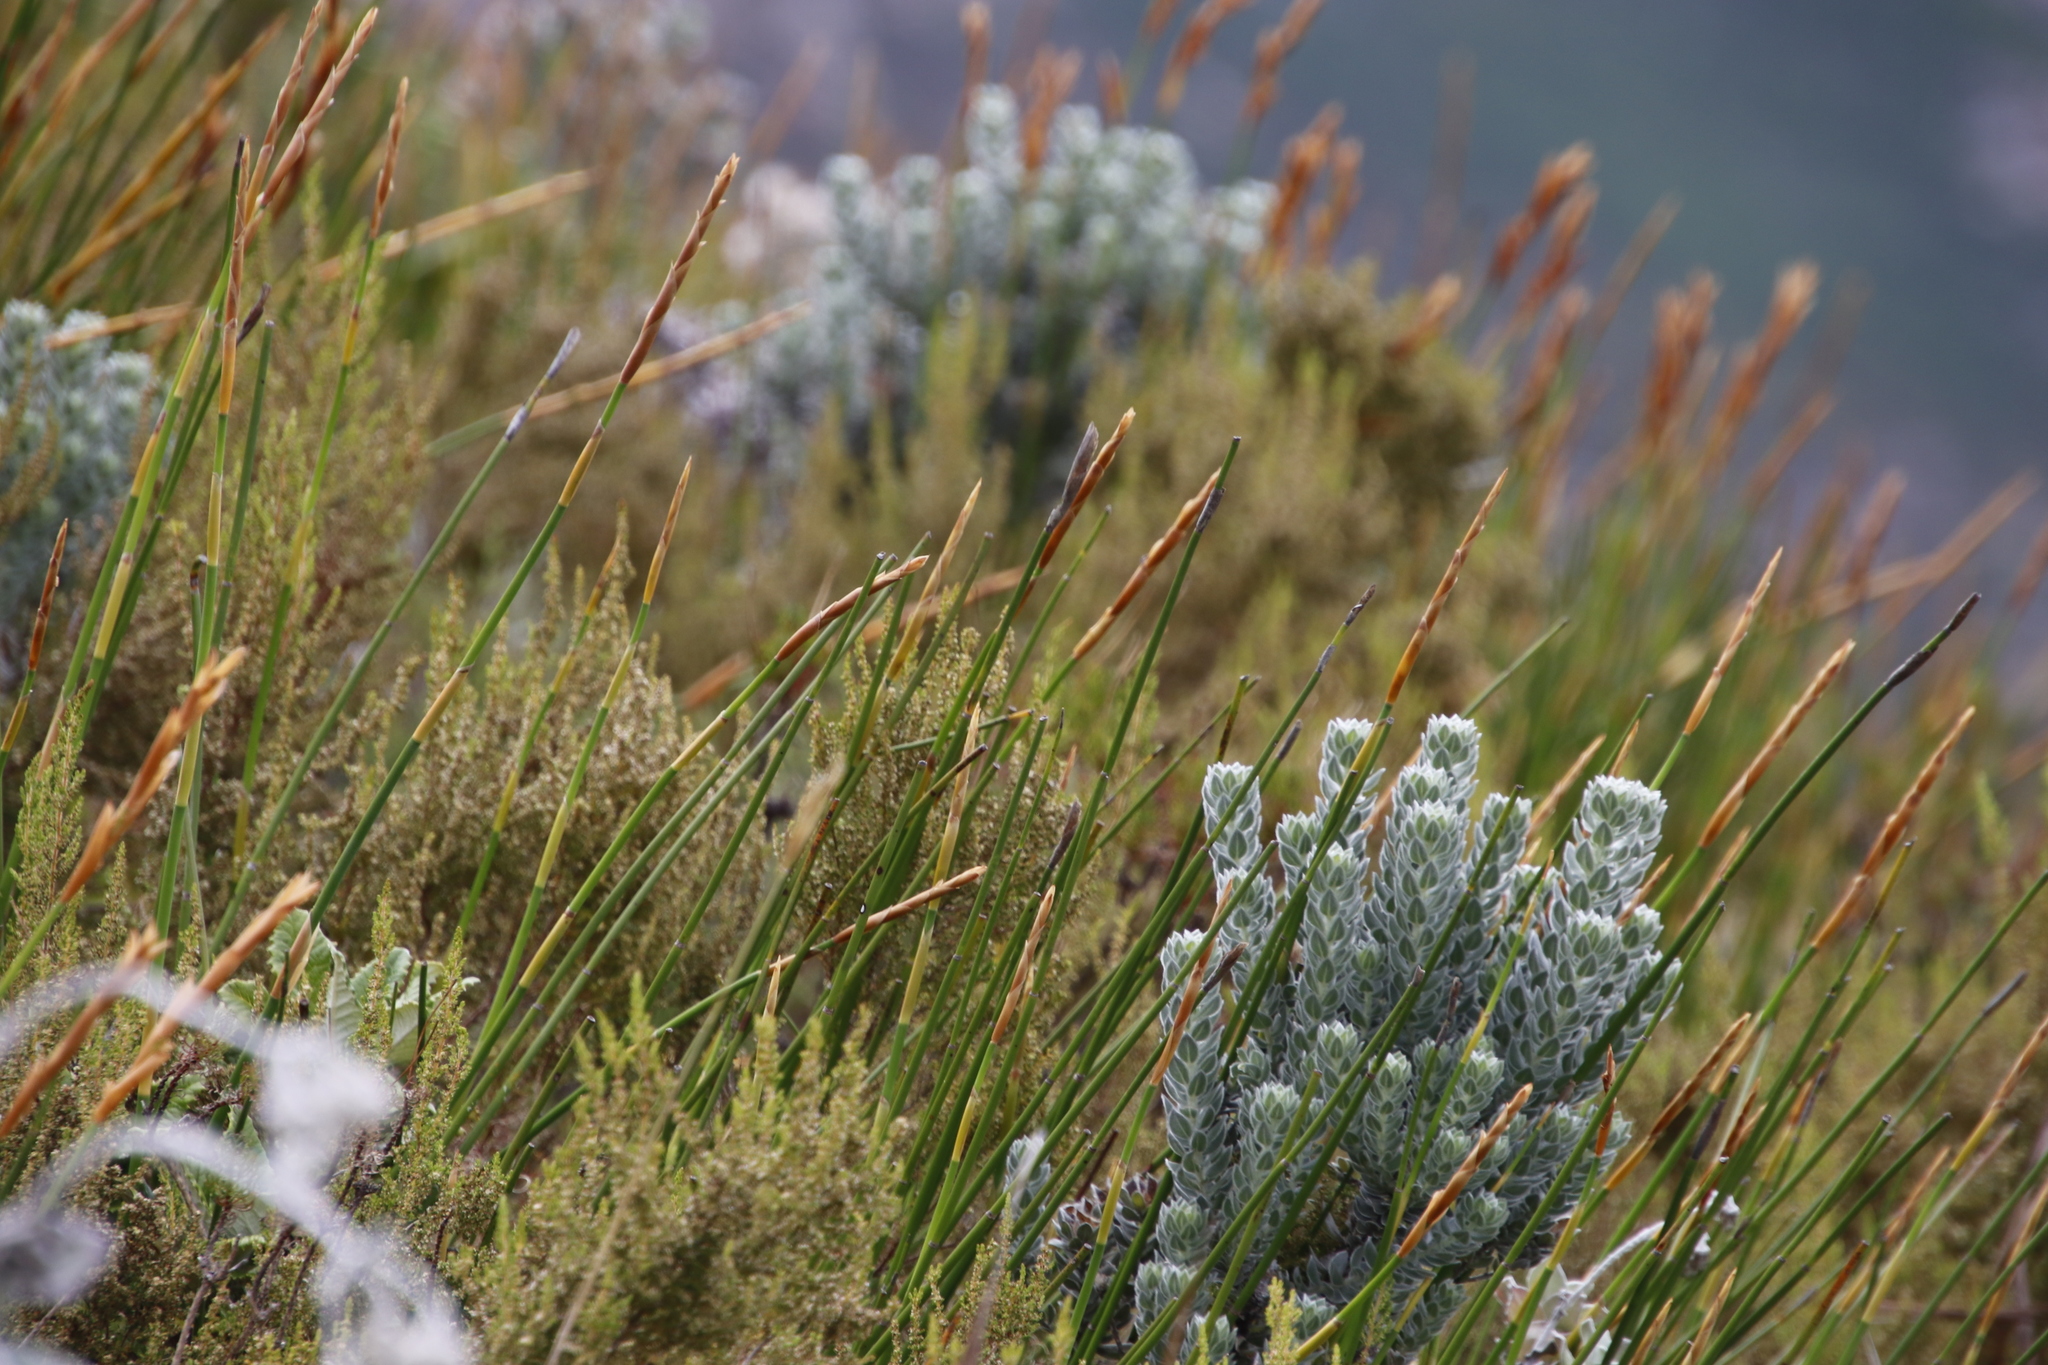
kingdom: Plantae
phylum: Tracheophyta
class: Magnoliopsida
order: Fabales
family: Fabaceae
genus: Xiphotheca
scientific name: Xiphotheca fruticosa
